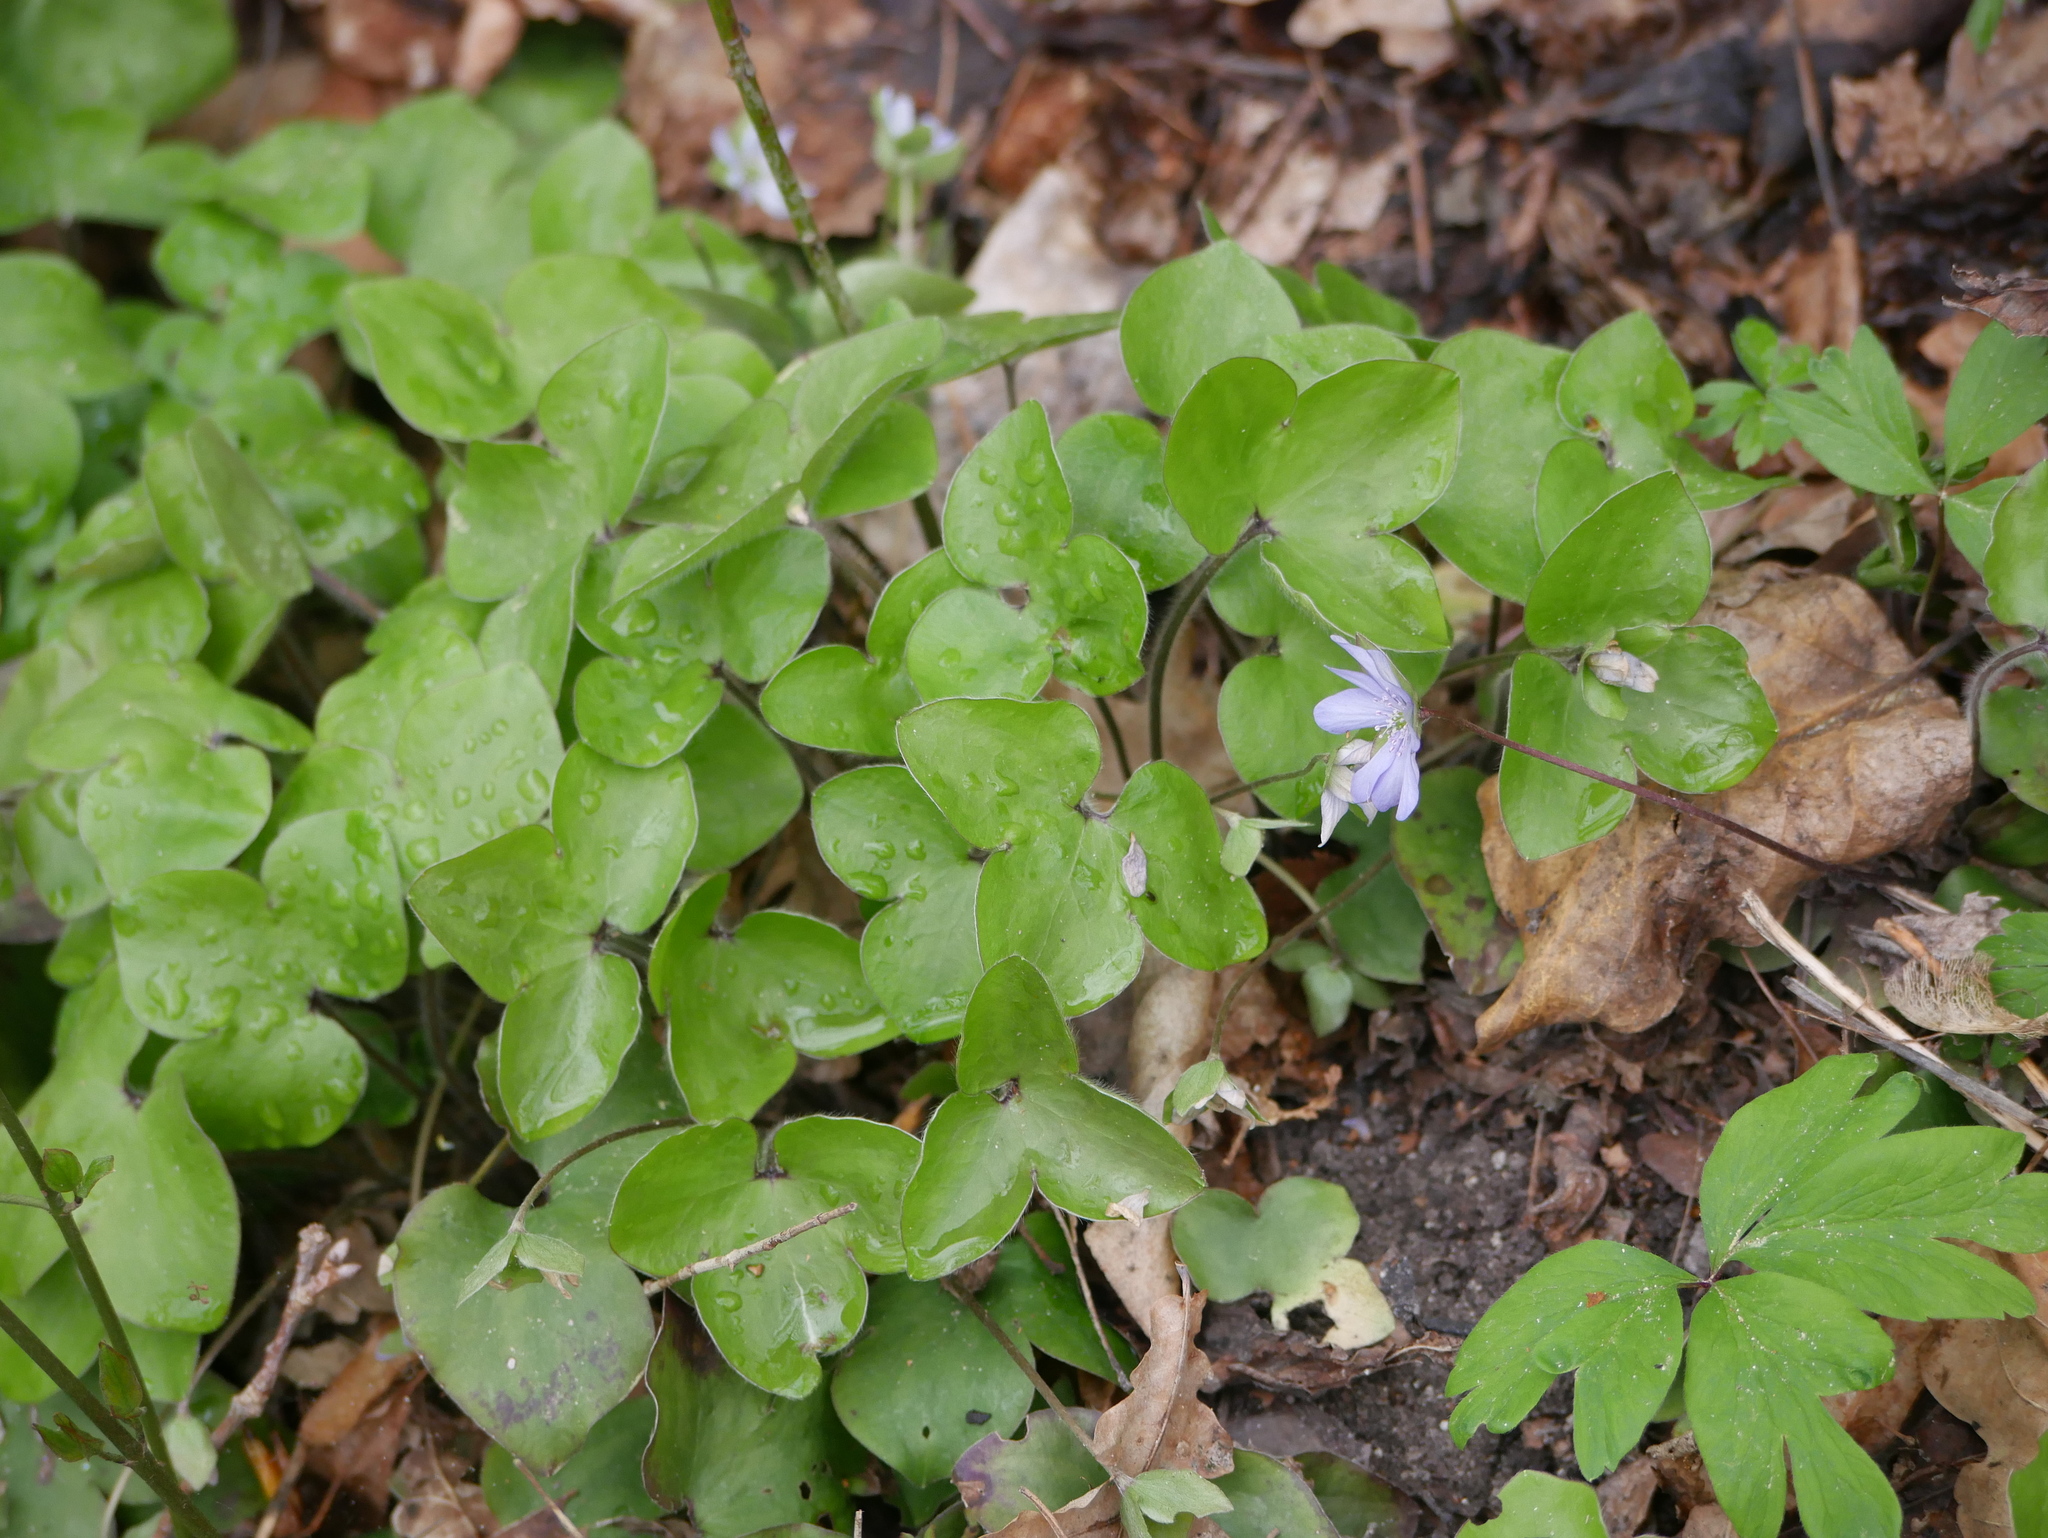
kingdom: Plantae
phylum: Tracheophyta
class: Magnoliopsida
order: Ranunculales
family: Ranunculaceae
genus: Hepatica
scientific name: Hepatica nobilis
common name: Liverleaf
